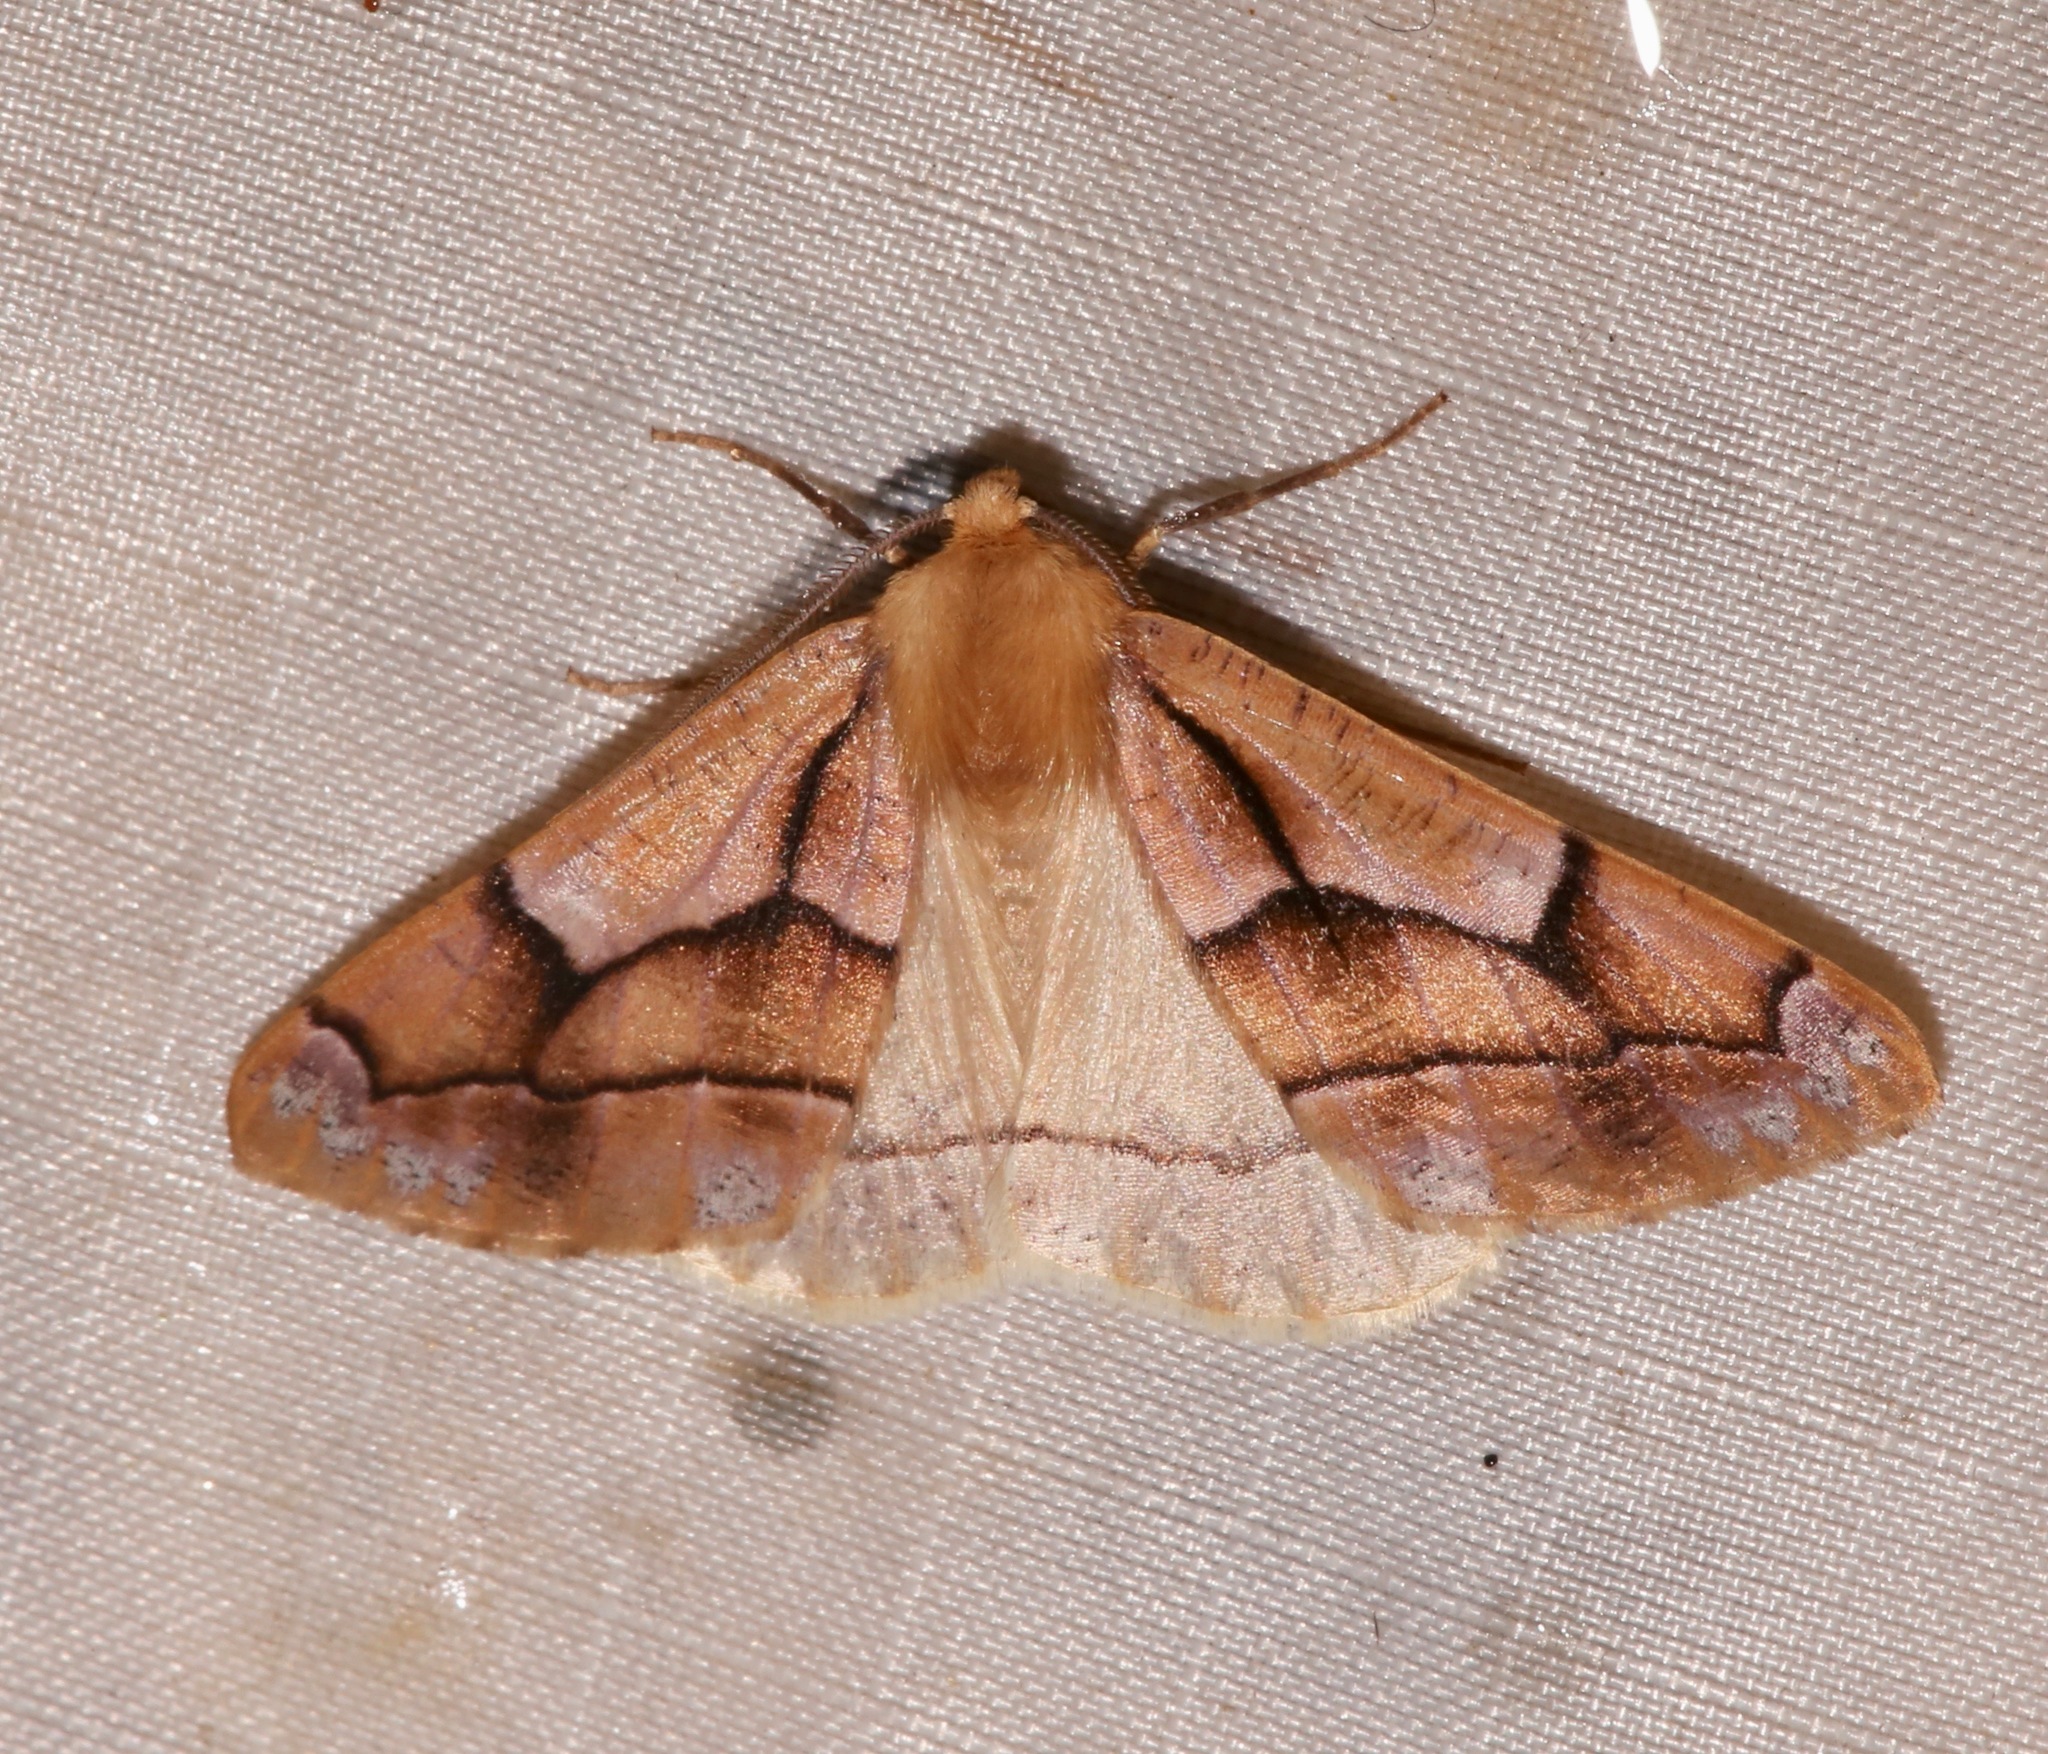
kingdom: Animalia
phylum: Arthropoda
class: Insecta
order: Lepidoptera
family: Geometridae
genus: Snowia
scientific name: Snowia montanaria
